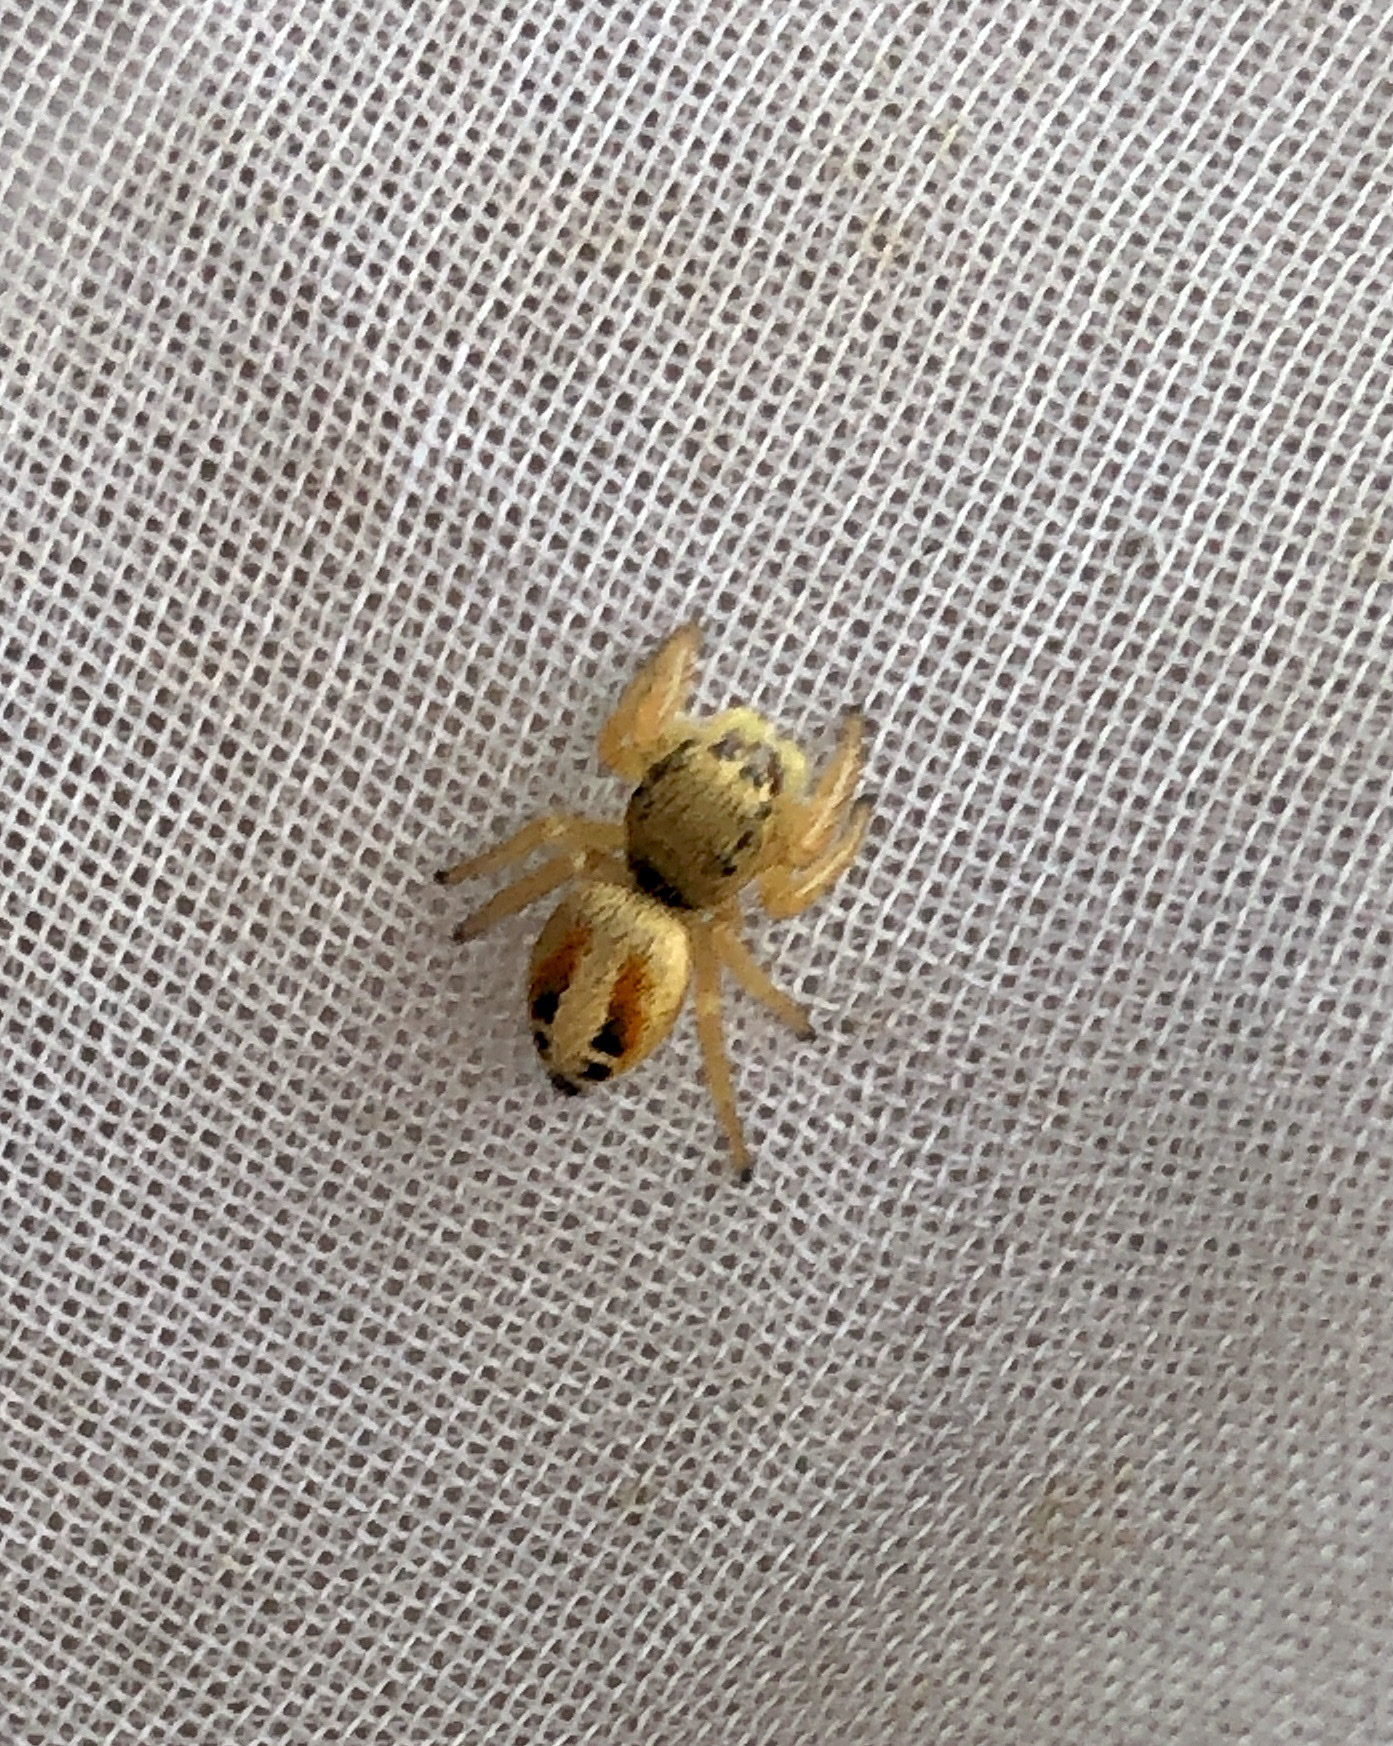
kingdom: Animalia
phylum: Arthropoda
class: Arachnida
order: Araneae
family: Salticidae
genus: Phidippus
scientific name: Phidippus nikites
